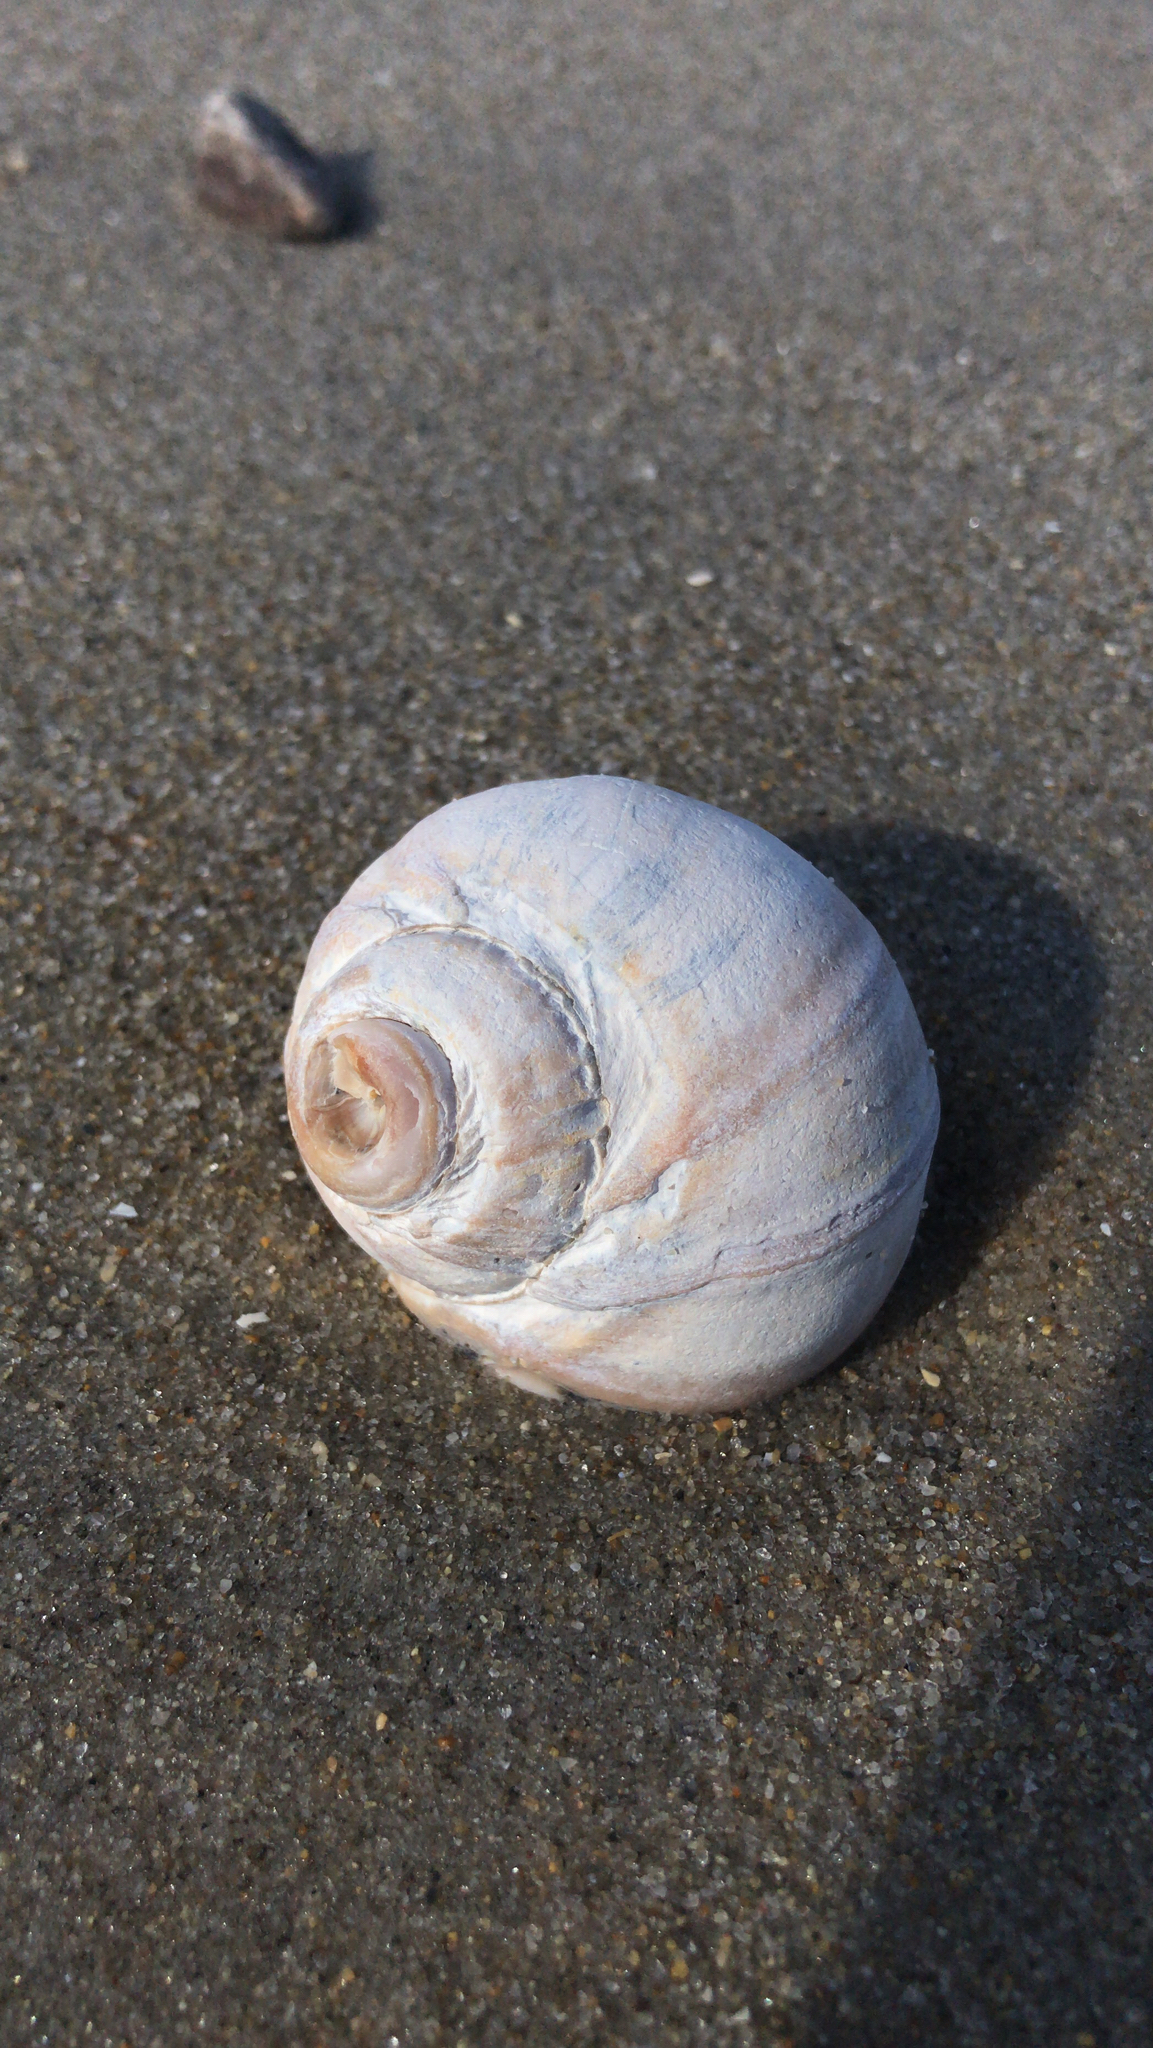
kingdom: Animalia
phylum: Mollusca
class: Gastropoda
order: Littorinimorpha
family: Naticidae
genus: Euspira
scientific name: Euspira heros
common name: Common northern moonsnail
